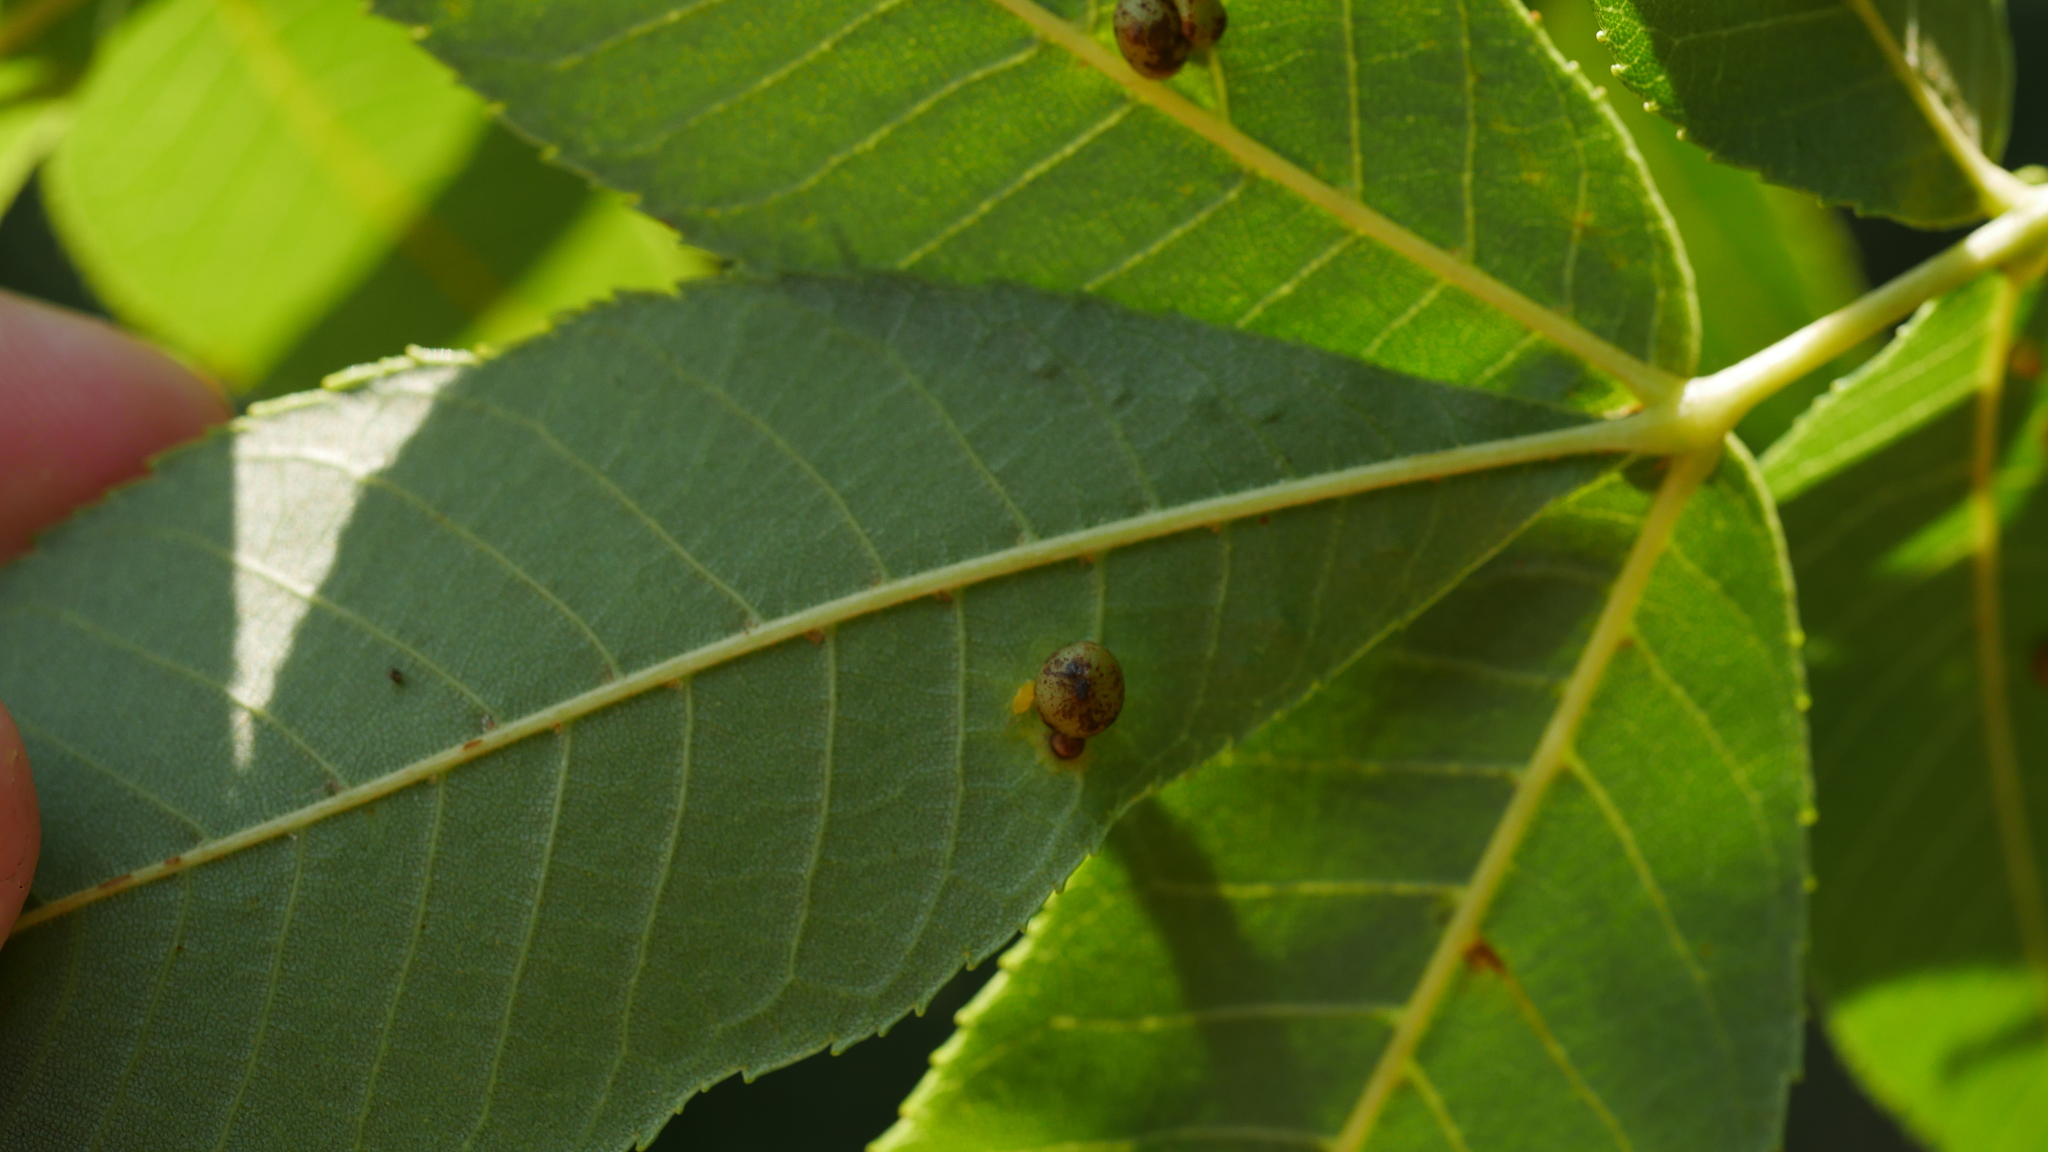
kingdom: Animalia
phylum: Arthropoda
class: Insecta
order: Diptera
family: Cecidomyiidae
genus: Caryomyia
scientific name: Caryomyia caryae
